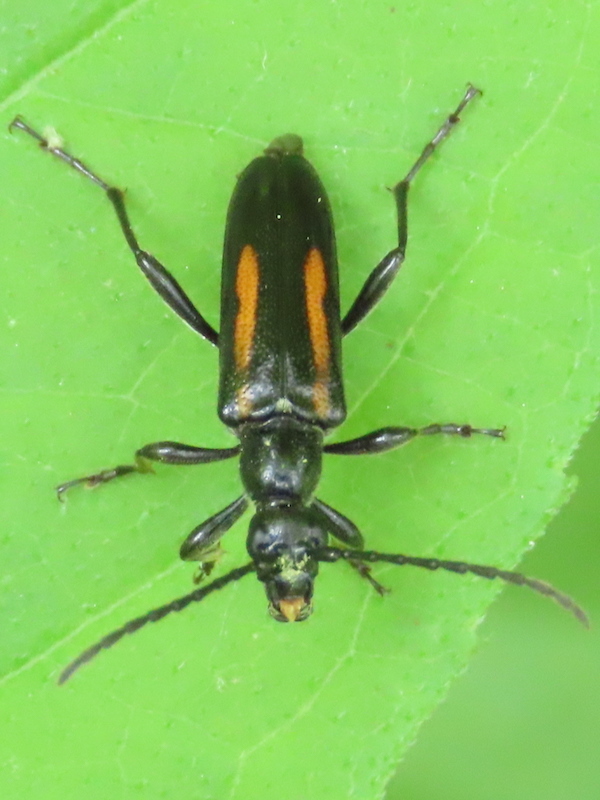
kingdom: Animalia
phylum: Arthropoda
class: Insecta
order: Coleoptera
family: Cerambycidae
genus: Strangalepta
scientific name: Strangalepta abbreviata
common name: Strangalepta flower longhorn beetle
